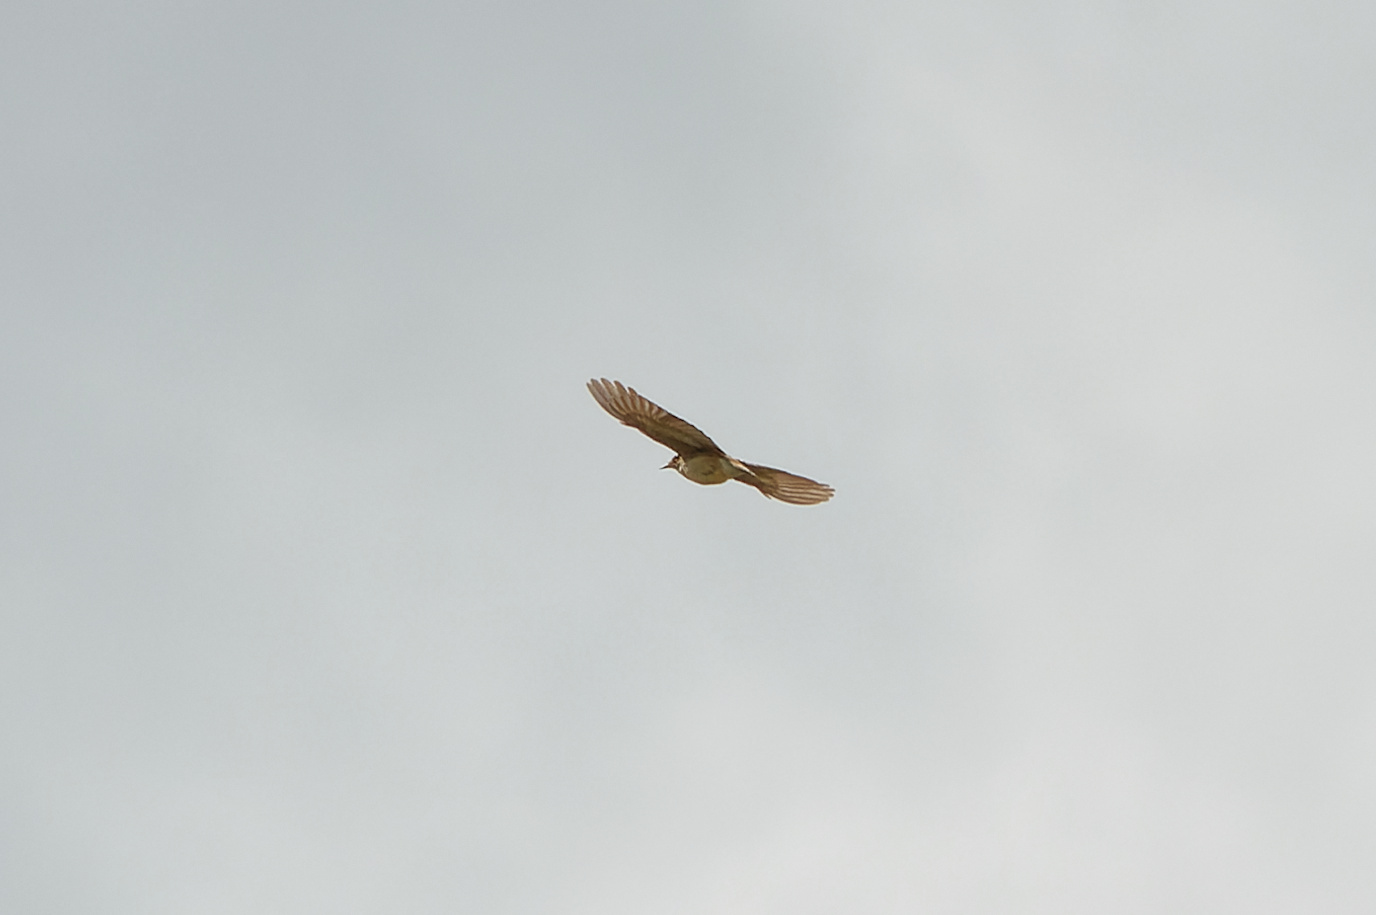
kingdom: Animalia
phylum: Chordata
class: Aves
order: Passeriformes
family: Alaudidae
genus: Lullula
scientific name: Lullula arborea
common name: Woodlark
